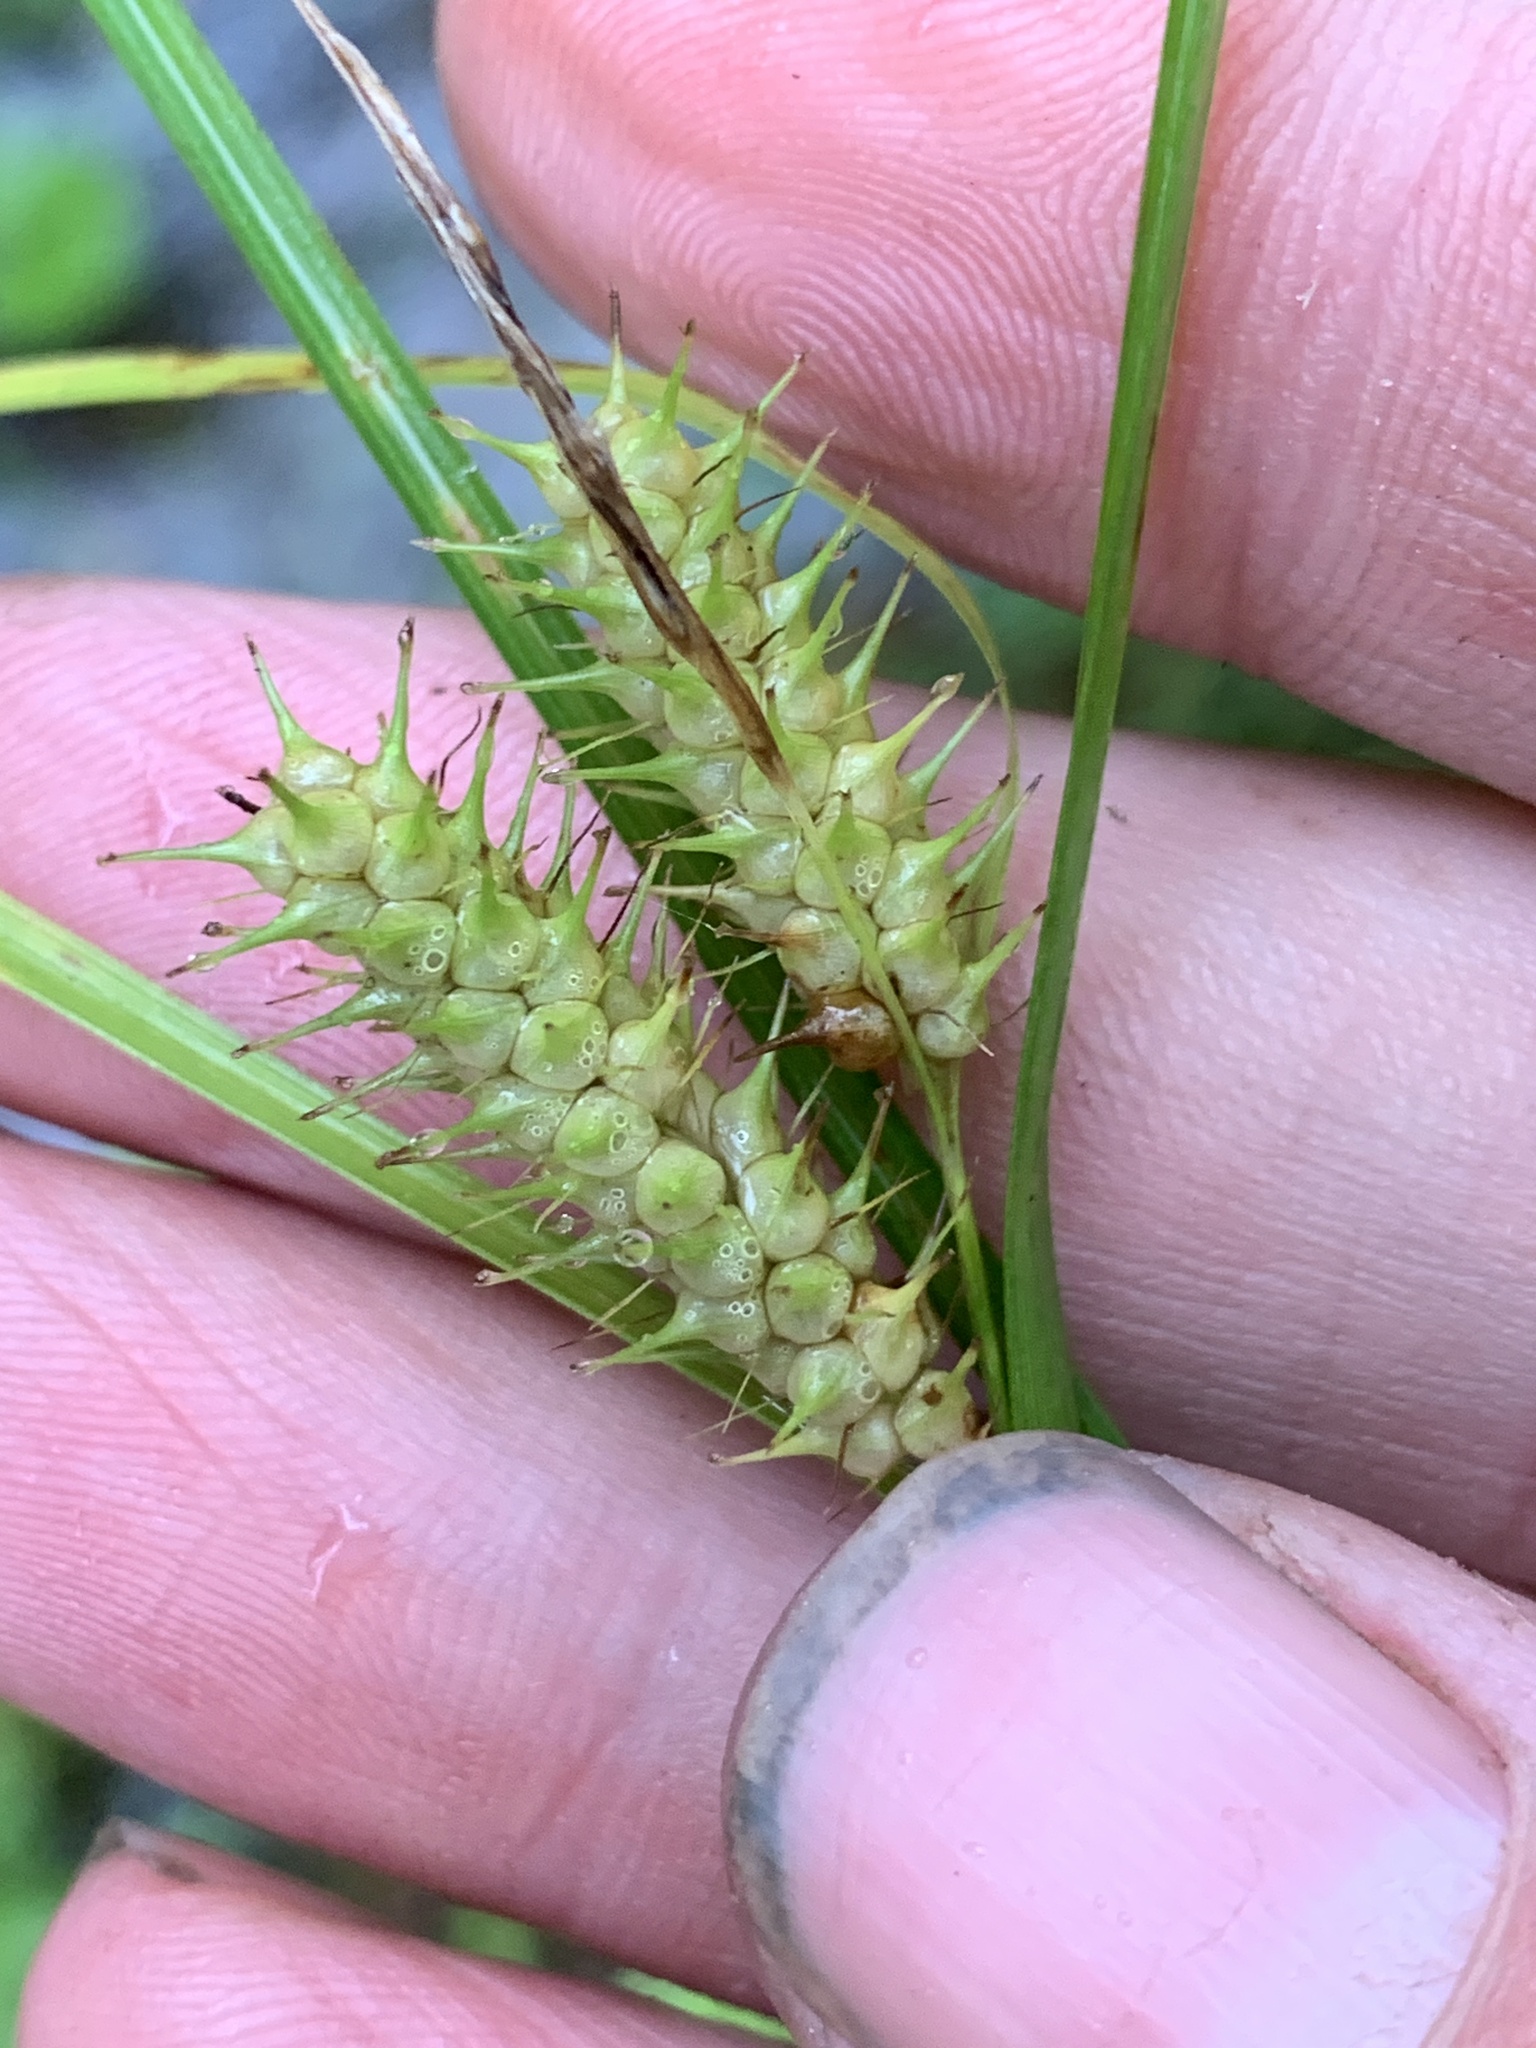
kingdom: Plantae
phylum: Tracheophyta
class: Liliopsida
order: Poales
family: Cyperaceae
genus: Carex
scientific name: Carex baileyi
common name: Bailey's sedge
